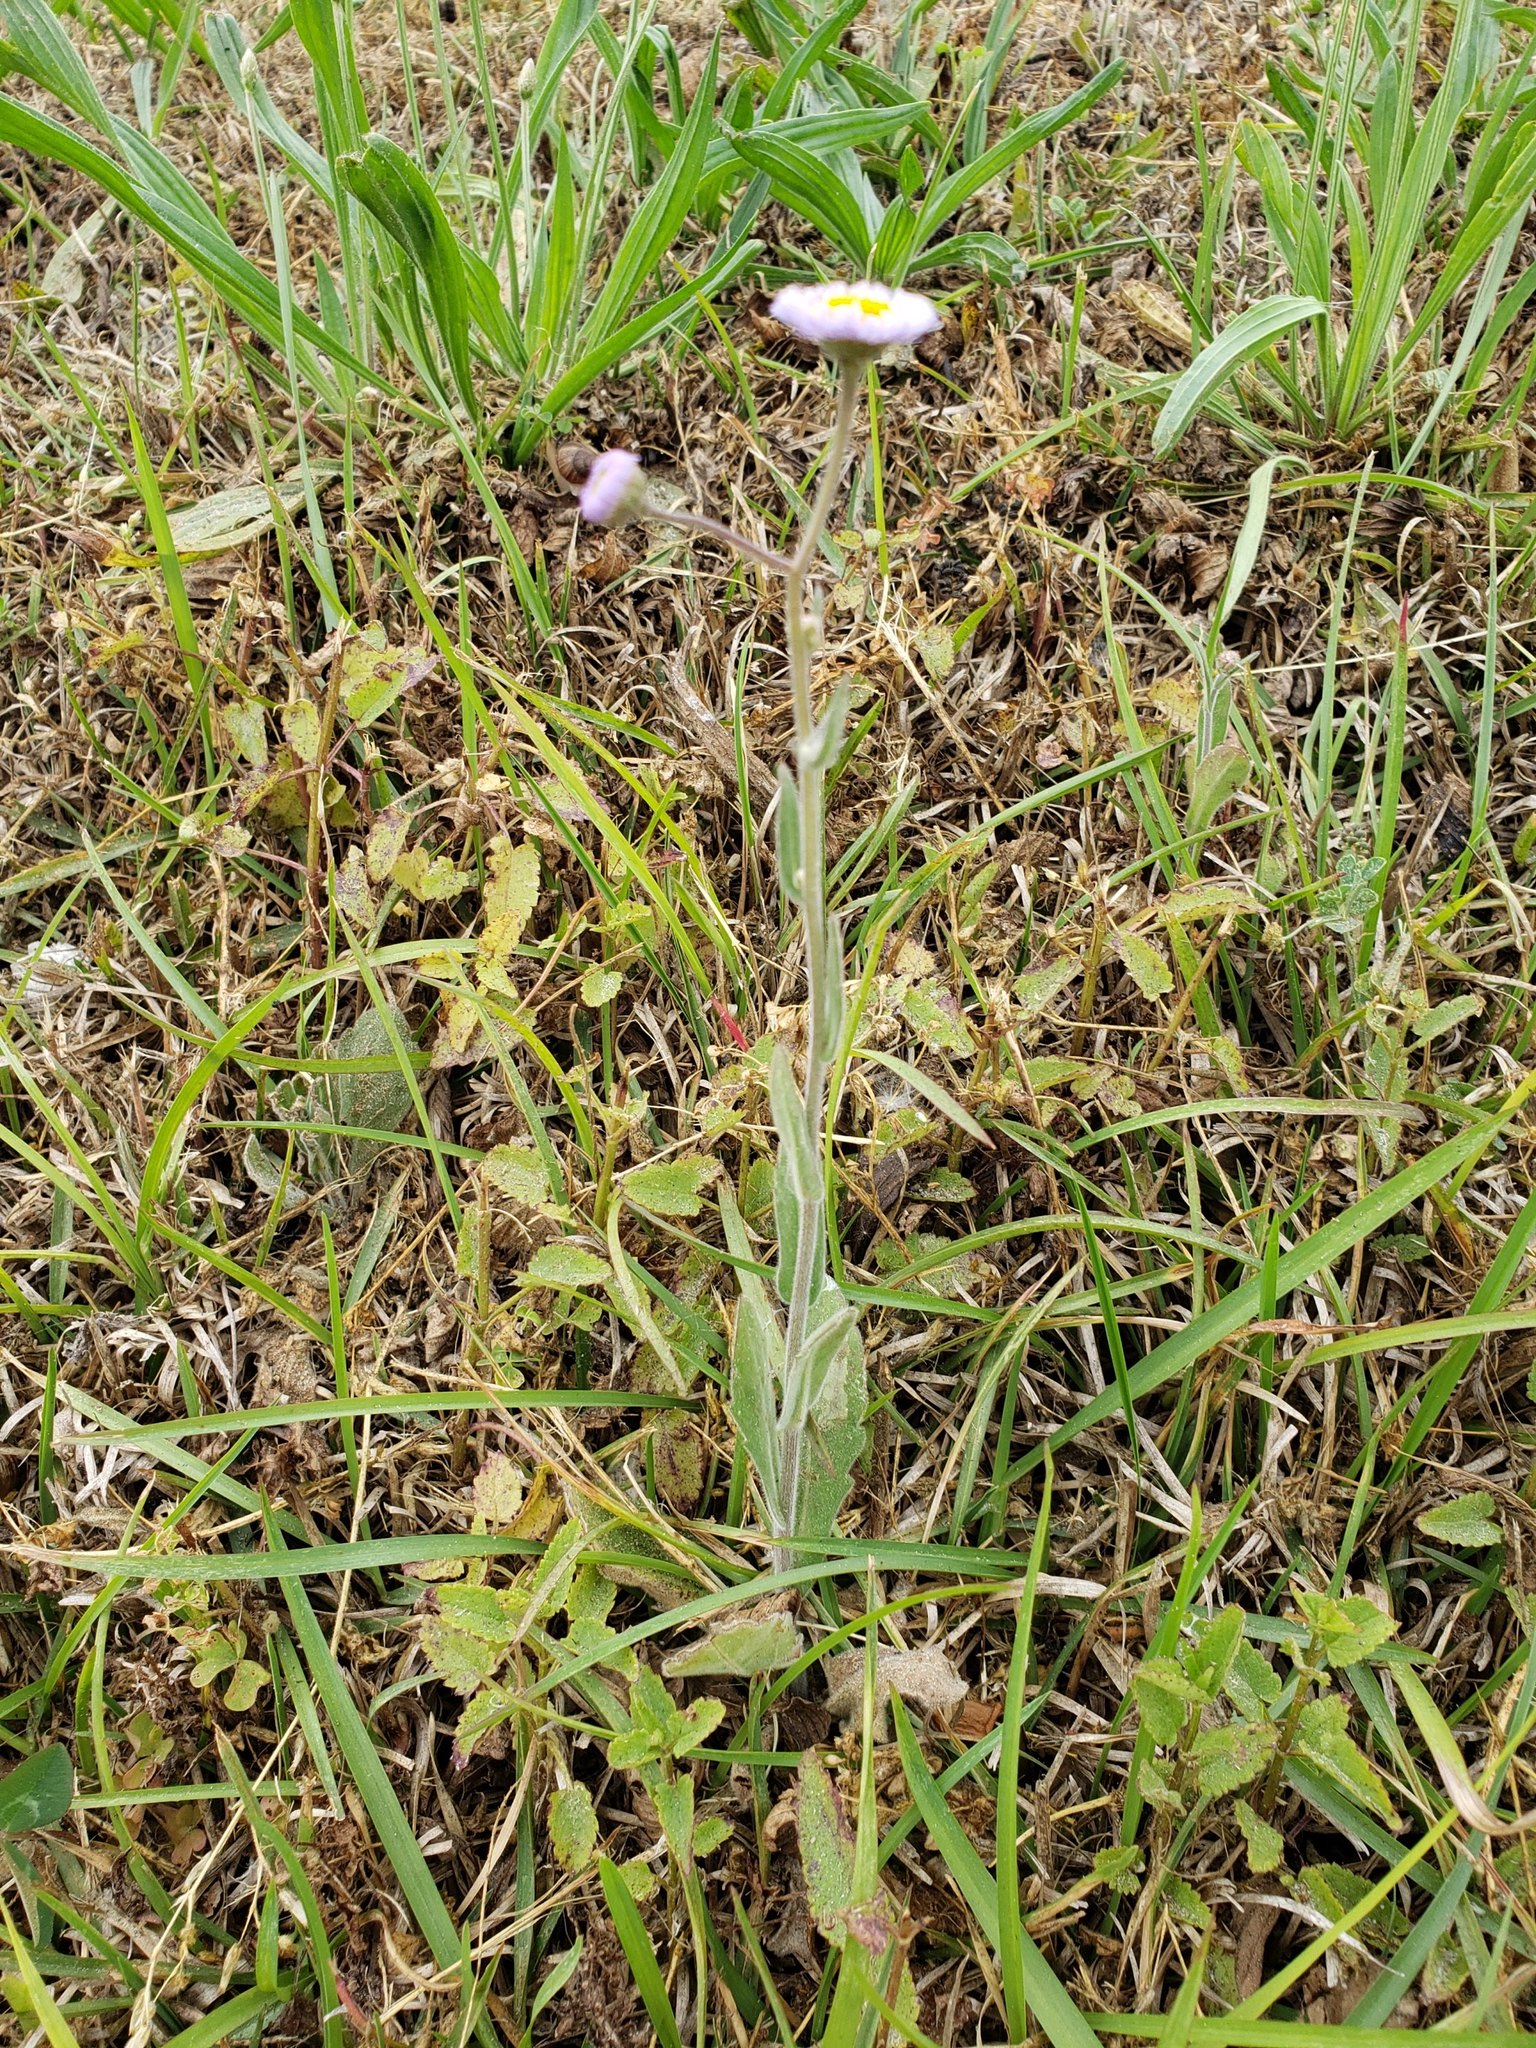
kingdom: Plantae
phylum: Tracheophyta
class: Magnoliopsida
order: Asterales
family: Asteraceae
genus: Erigeron
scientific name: Erigeron quercifolius
